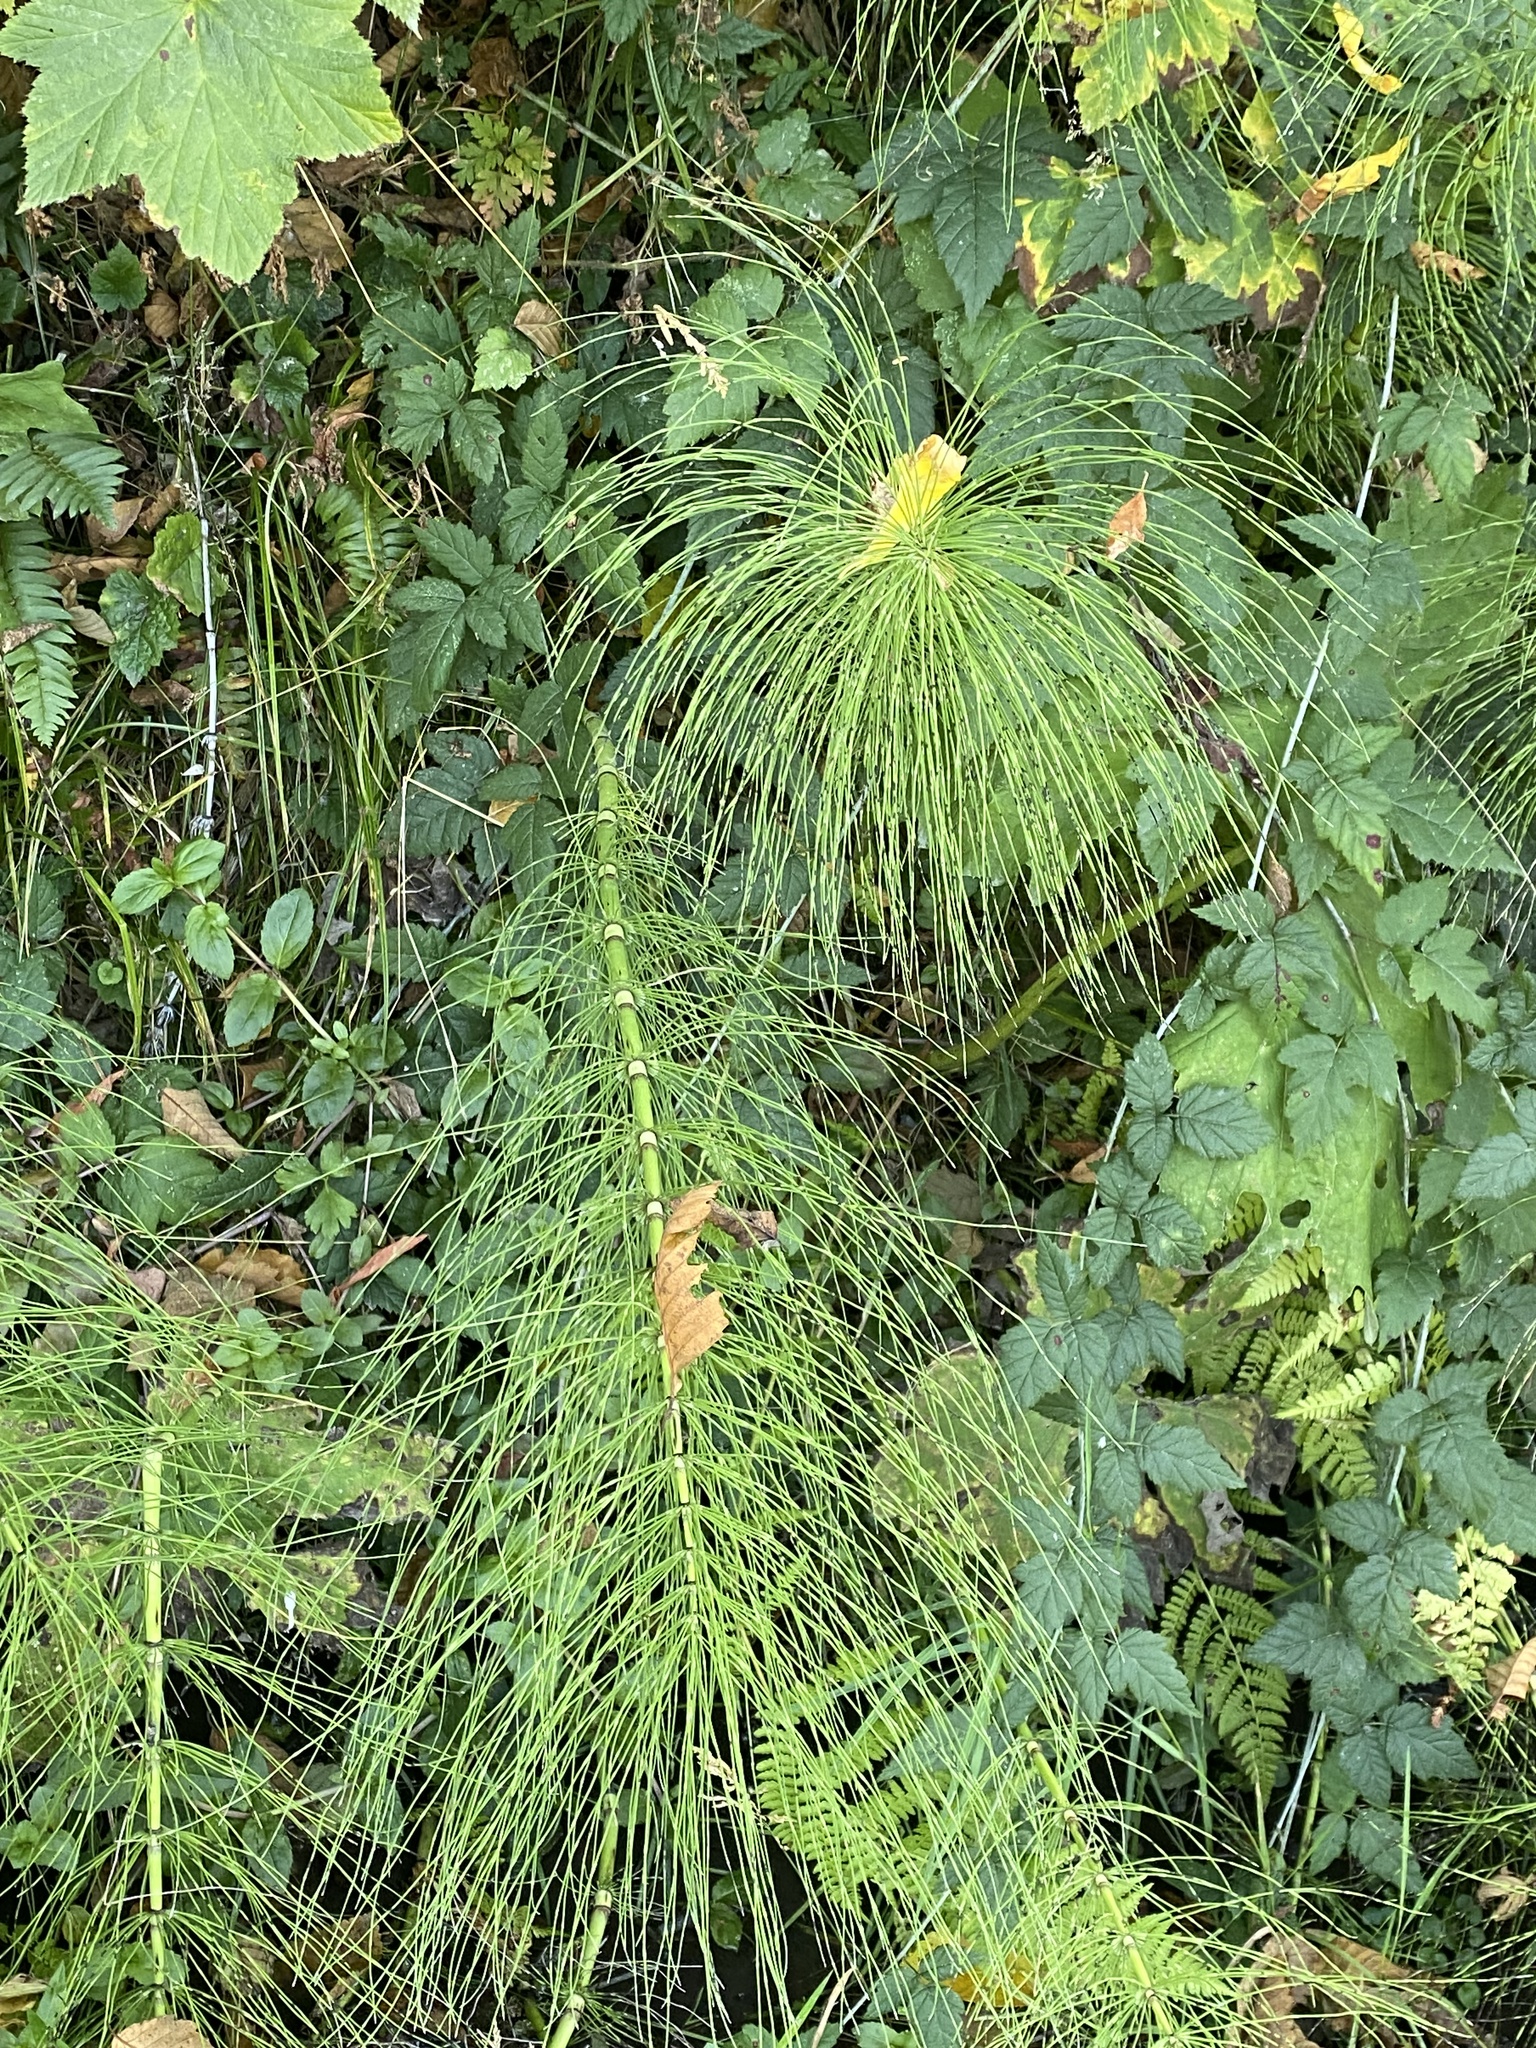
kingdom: Plantae
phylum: Tracheophyta
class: Polypodiopsida
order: Equisetales
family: Equisetaceae
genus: Equisetum
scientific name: Equisetum braunii
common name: Braun's horsetail
